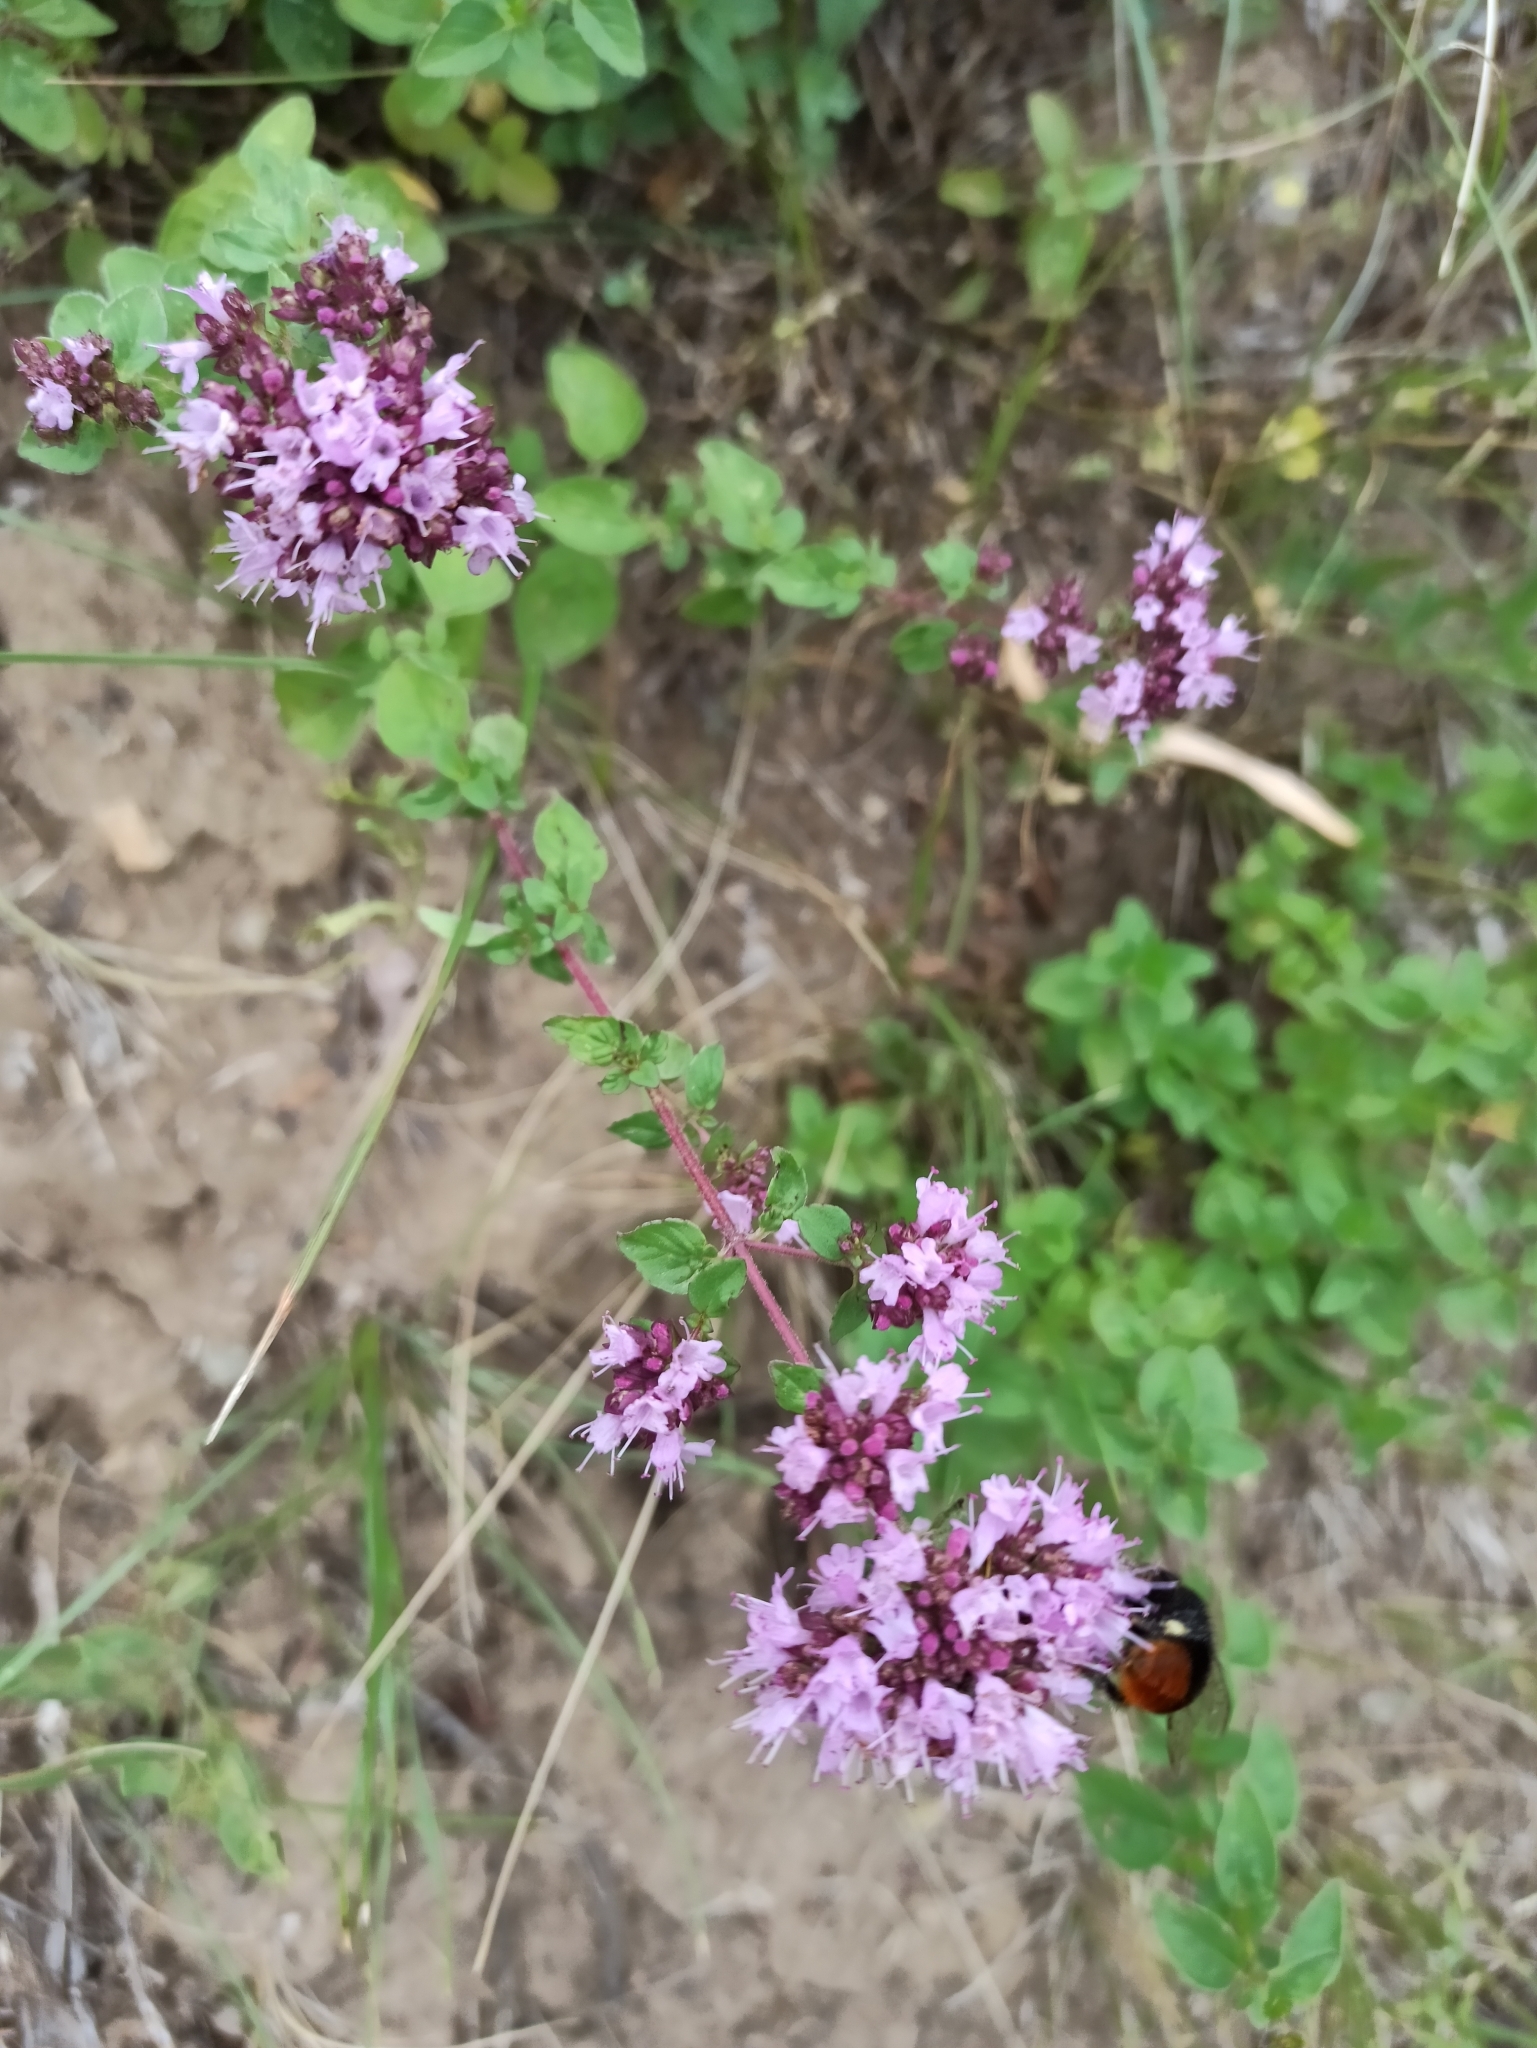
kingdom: Plantae
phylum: Tracheophyta
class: Magnoliopsida
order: Lamiales
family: Lamiaceae
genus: Origanum
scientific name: Origanum vulgare
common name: Wild marjoram
